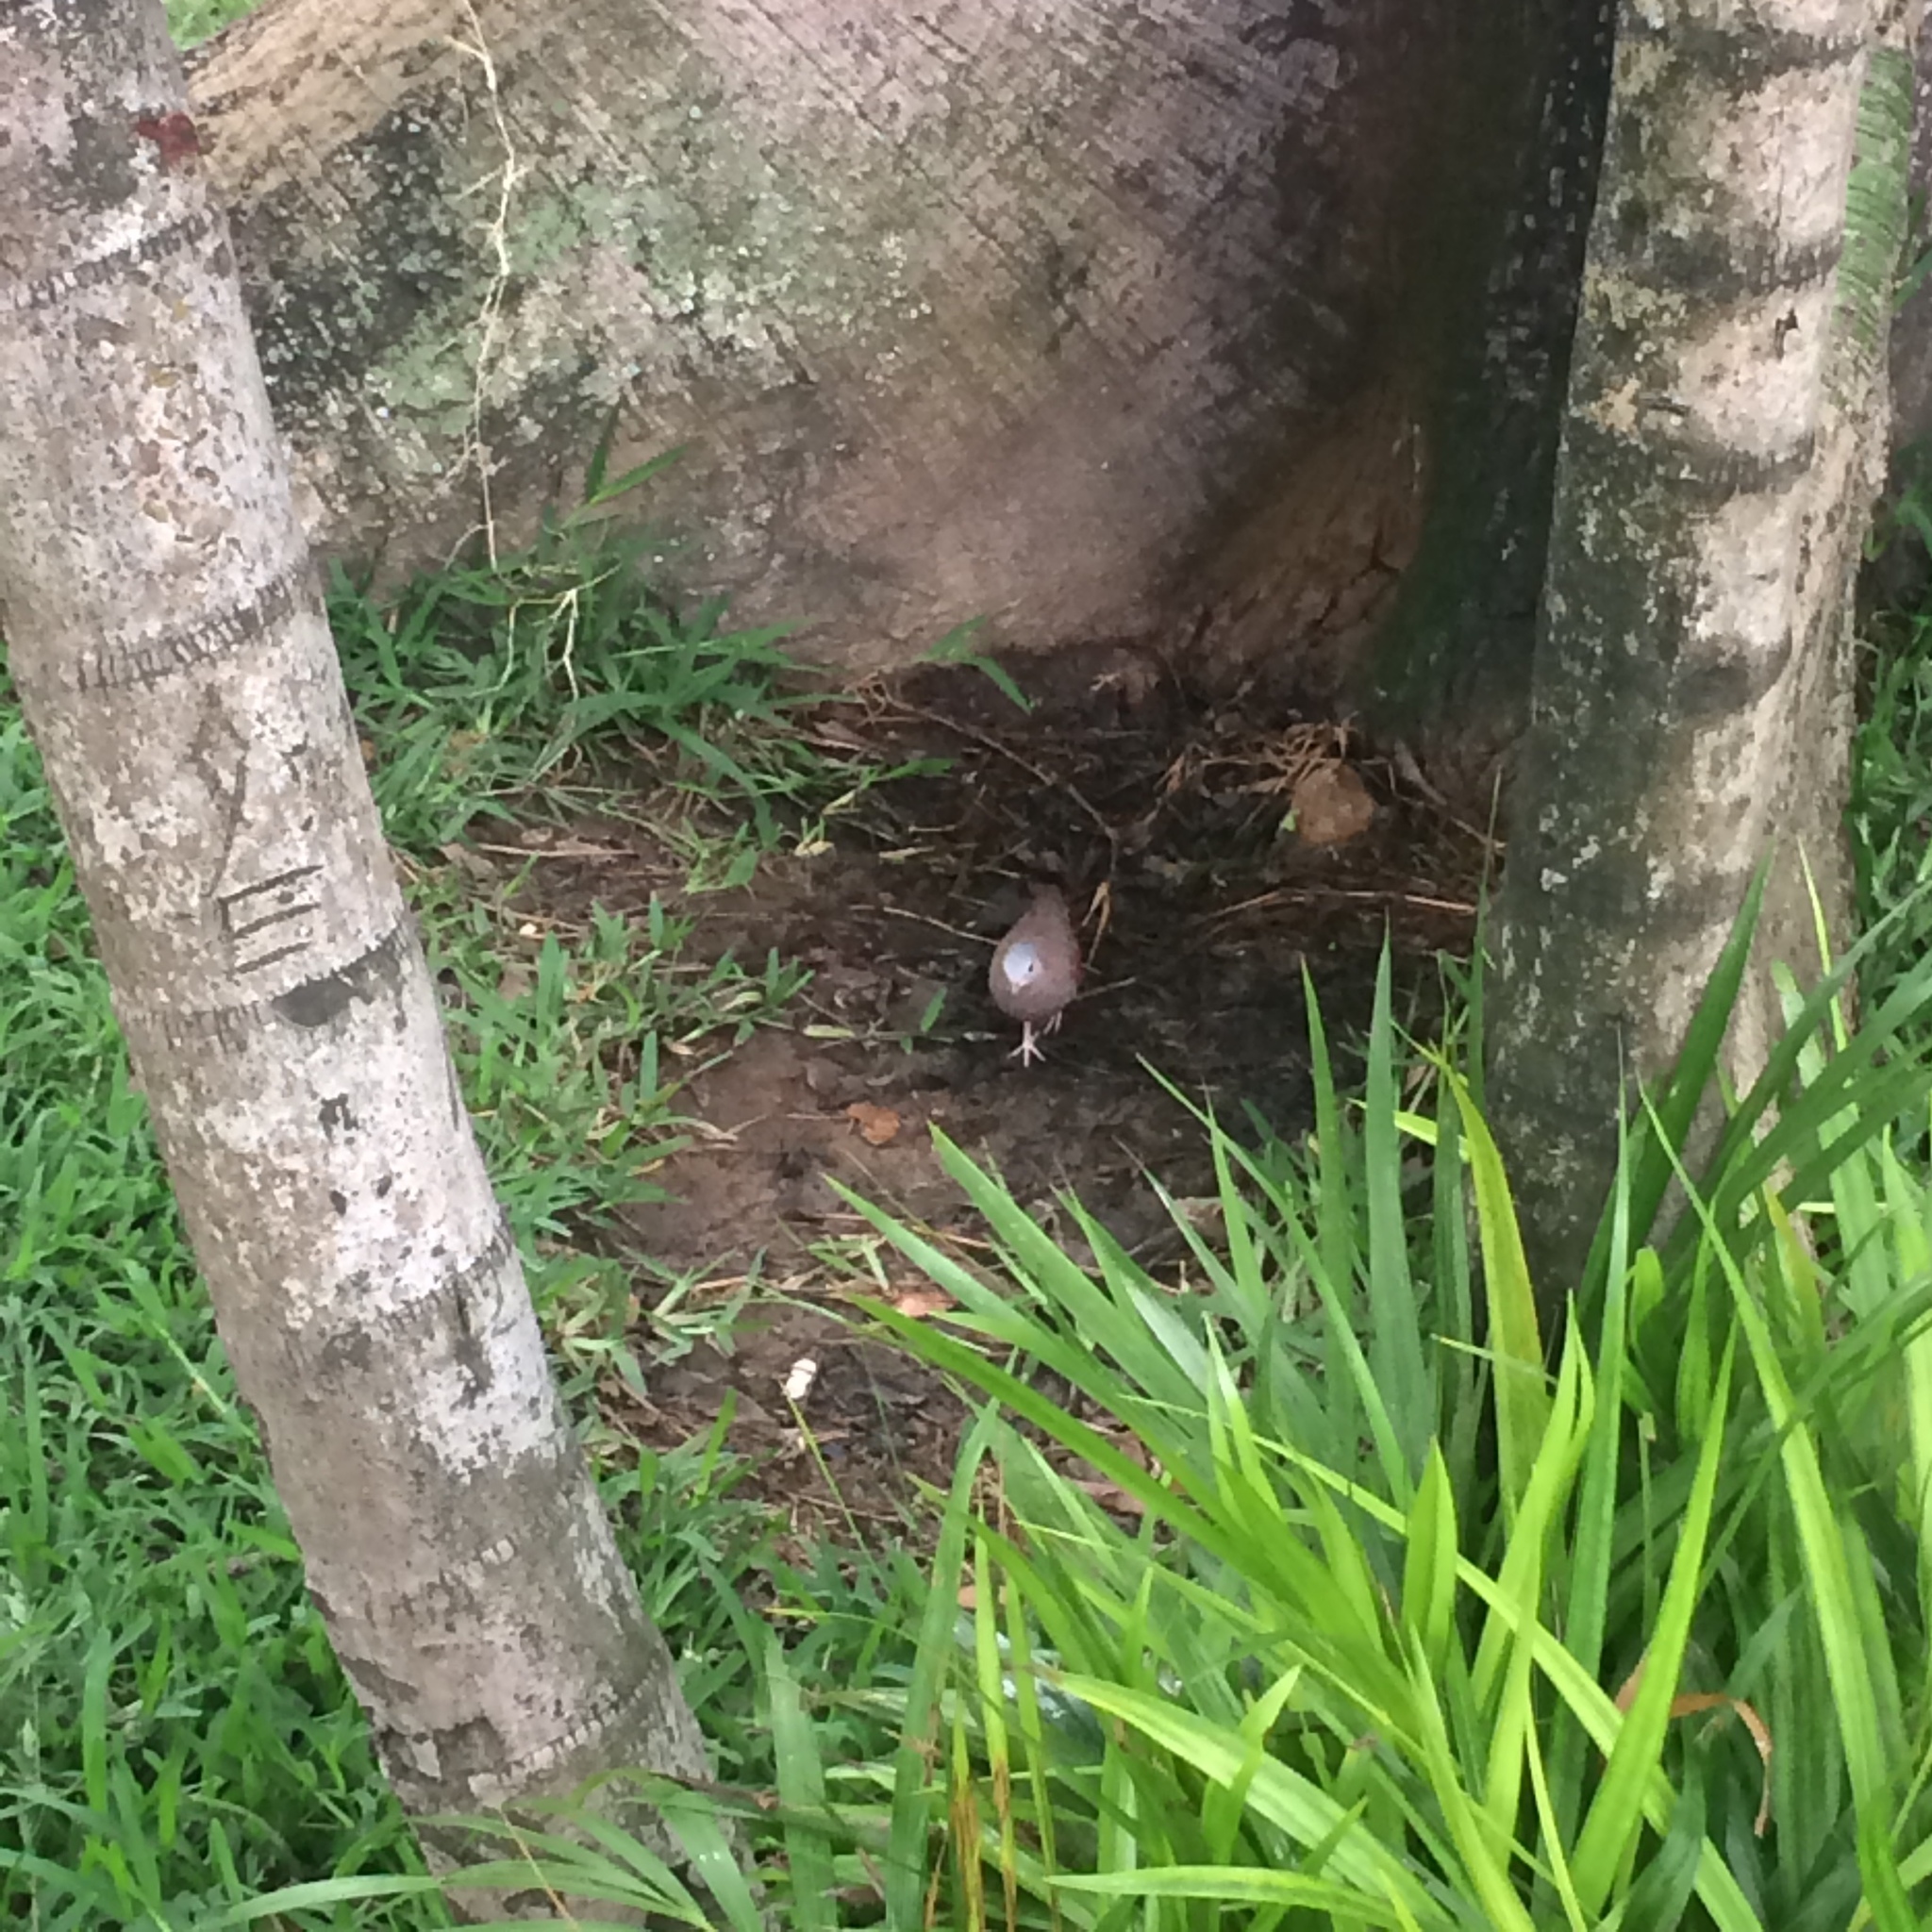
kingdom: Animalia
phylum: Chordata
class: Aves
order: Columbiformes
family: Columbidae
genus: Columbina
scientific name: Columbina talpacoti
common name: Ruddy ground dove
